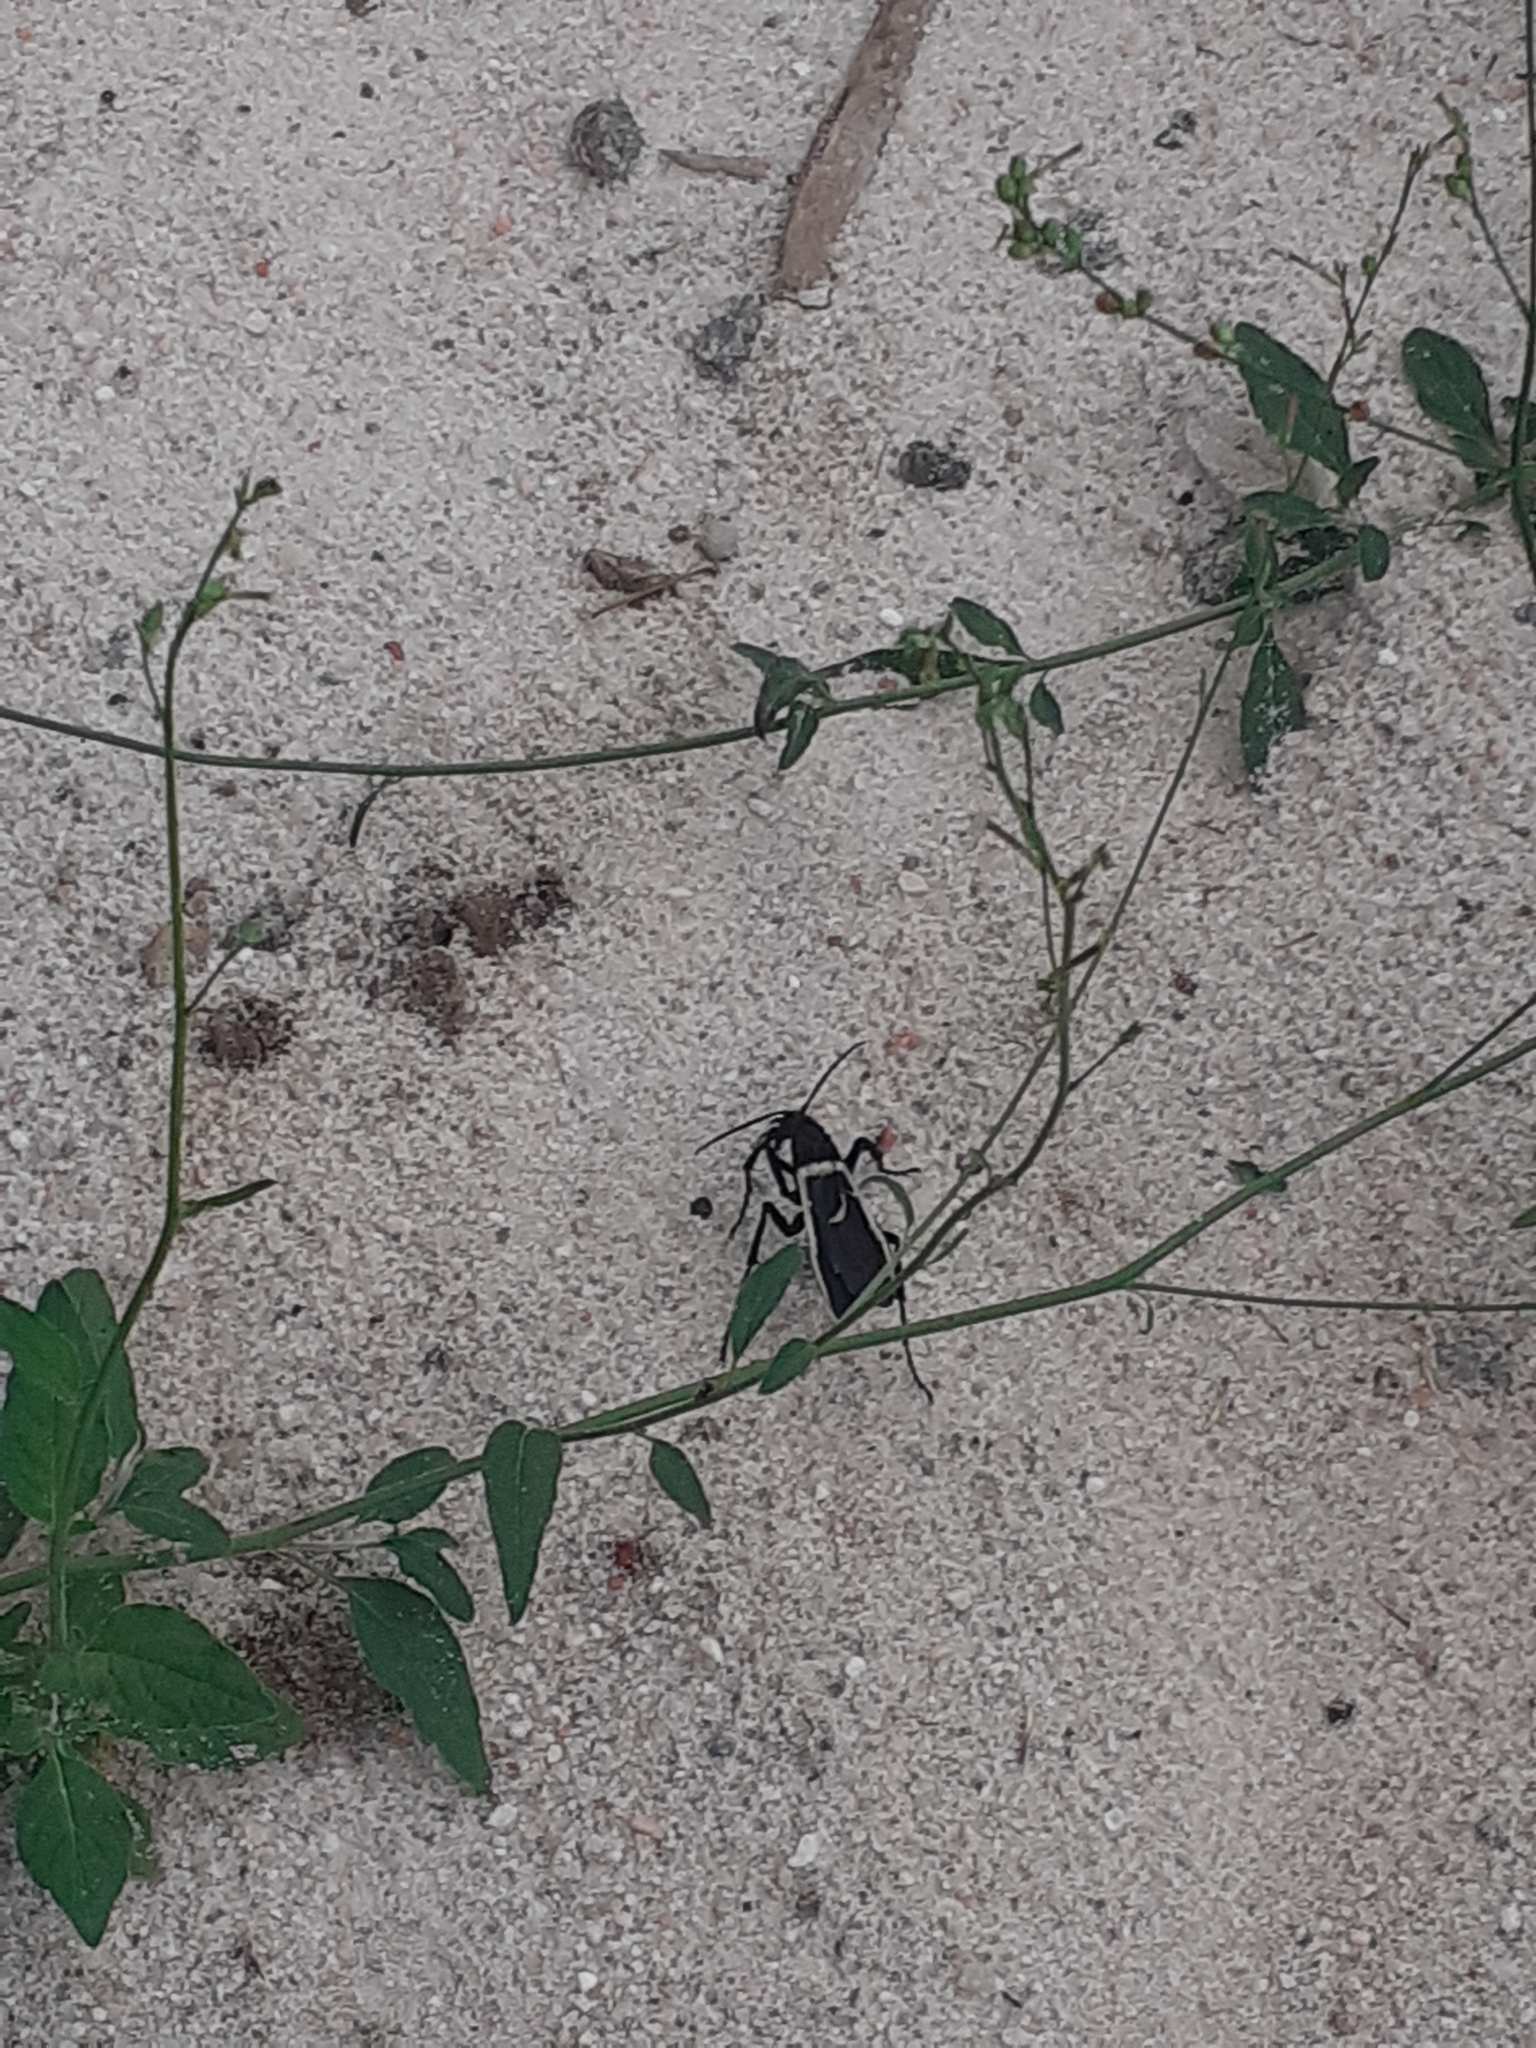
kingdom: Animalia
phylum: Arthropoda
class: Insecta
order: Hymenoptera
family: Pompilidae
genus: Pepsis
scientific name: Pepsis decorata
